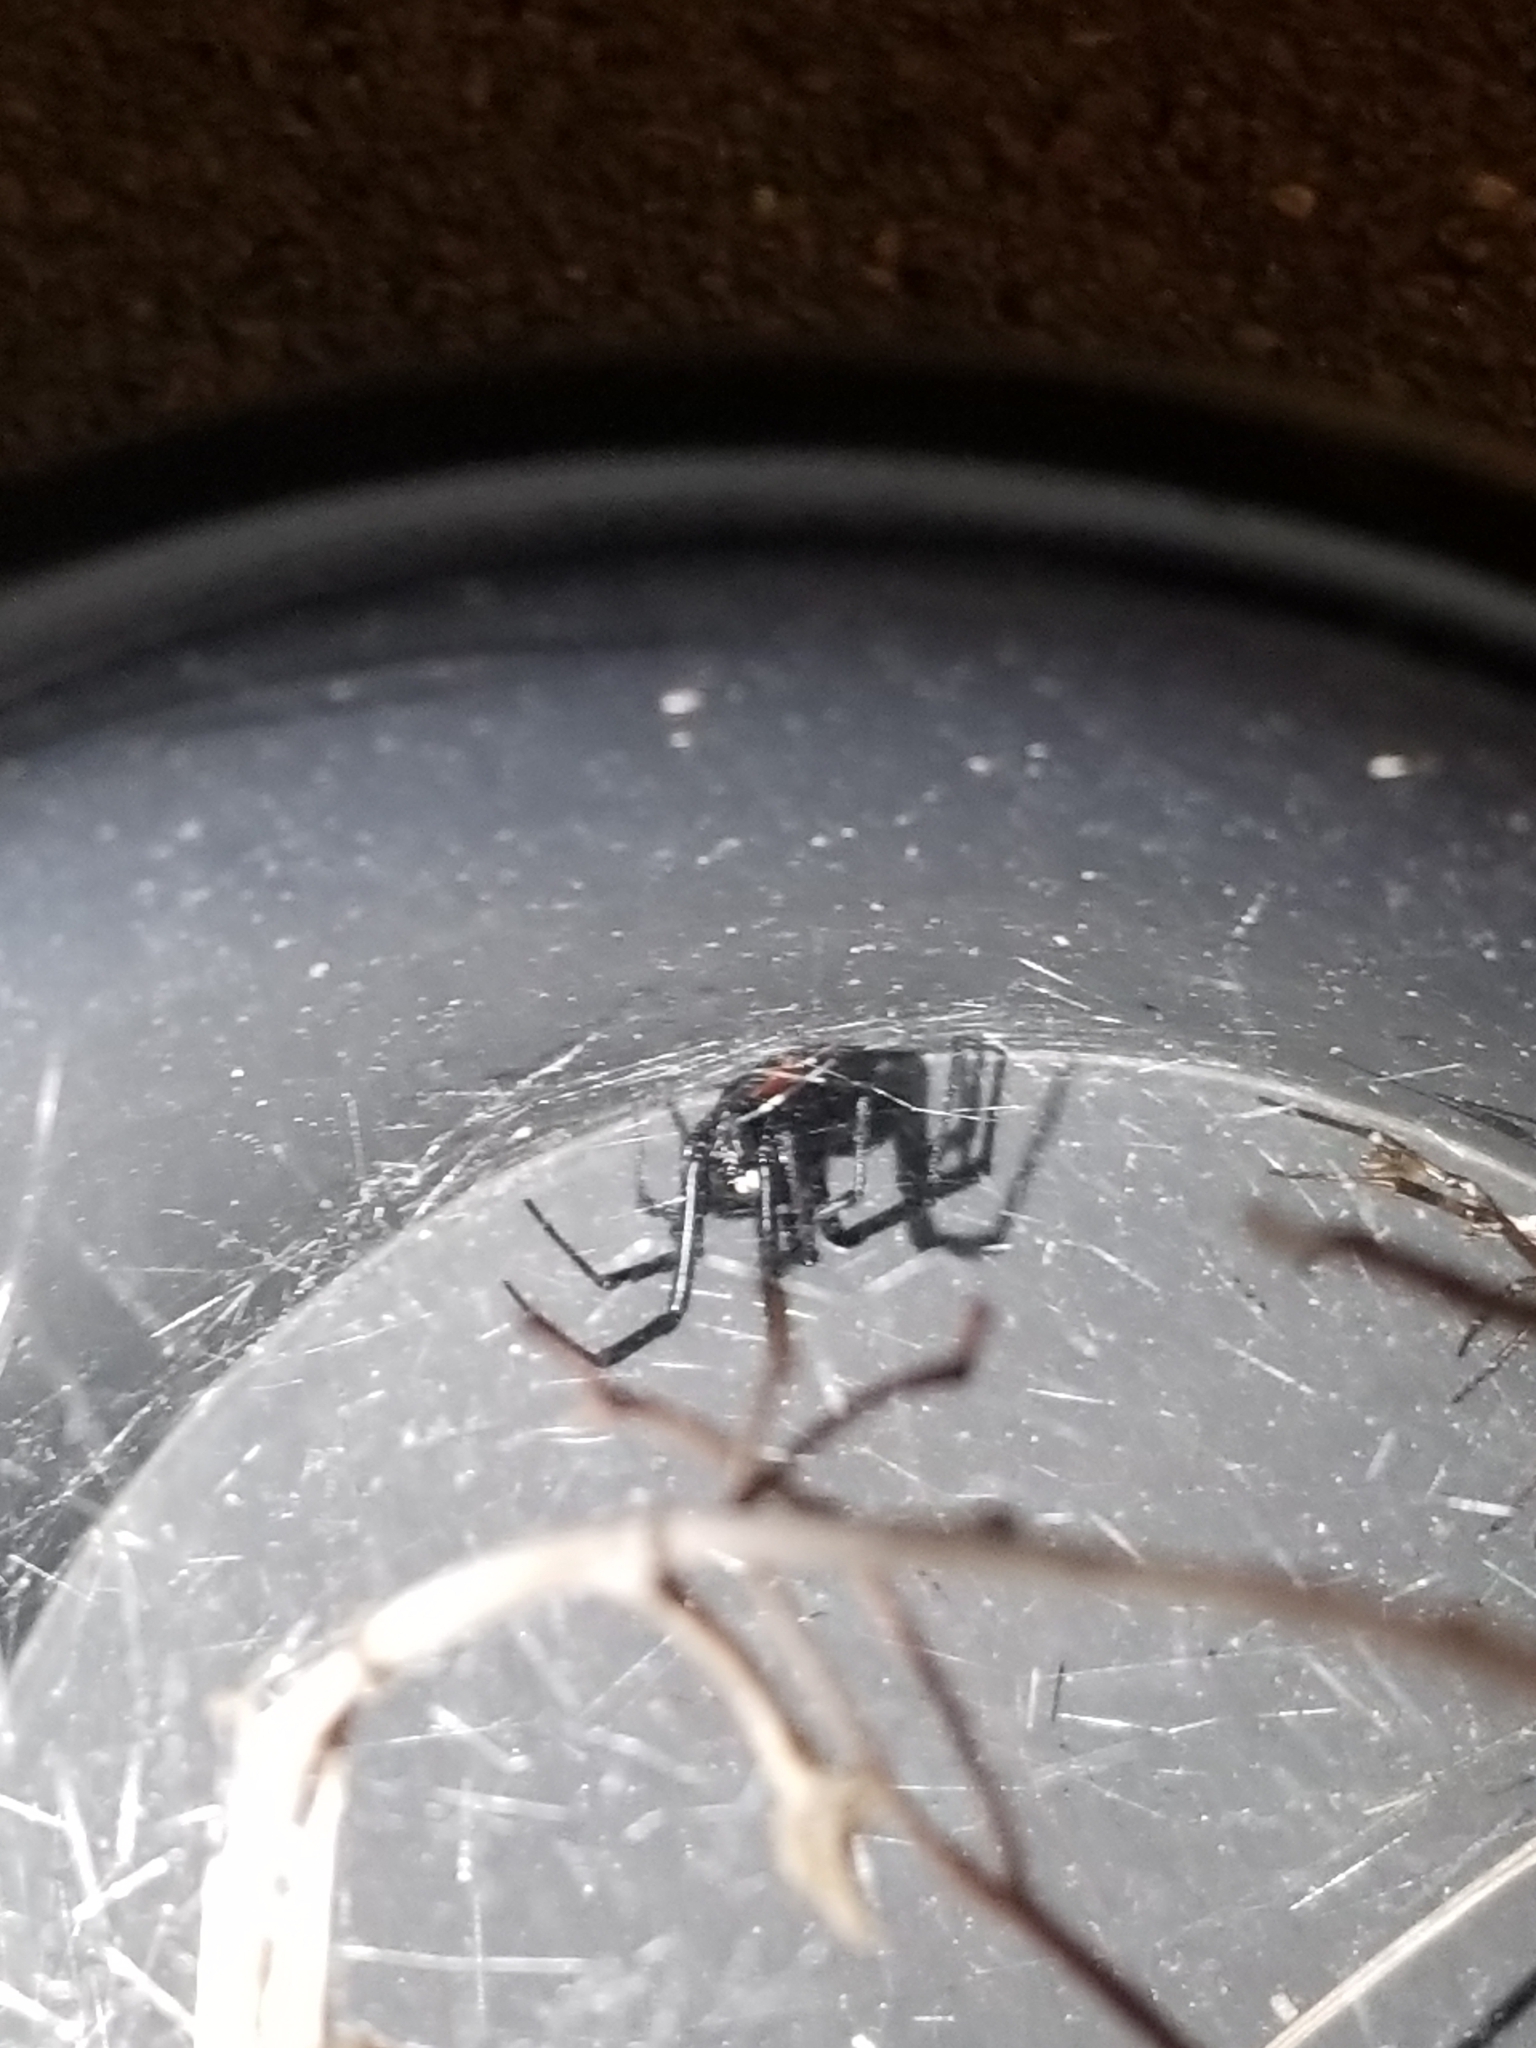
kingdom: Animalia
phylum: Arthropoda
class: Arachnida
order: Araneae
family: Theridiidae
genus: Latrodectus
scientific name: Latrodectus hesperus
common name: Western black widow
